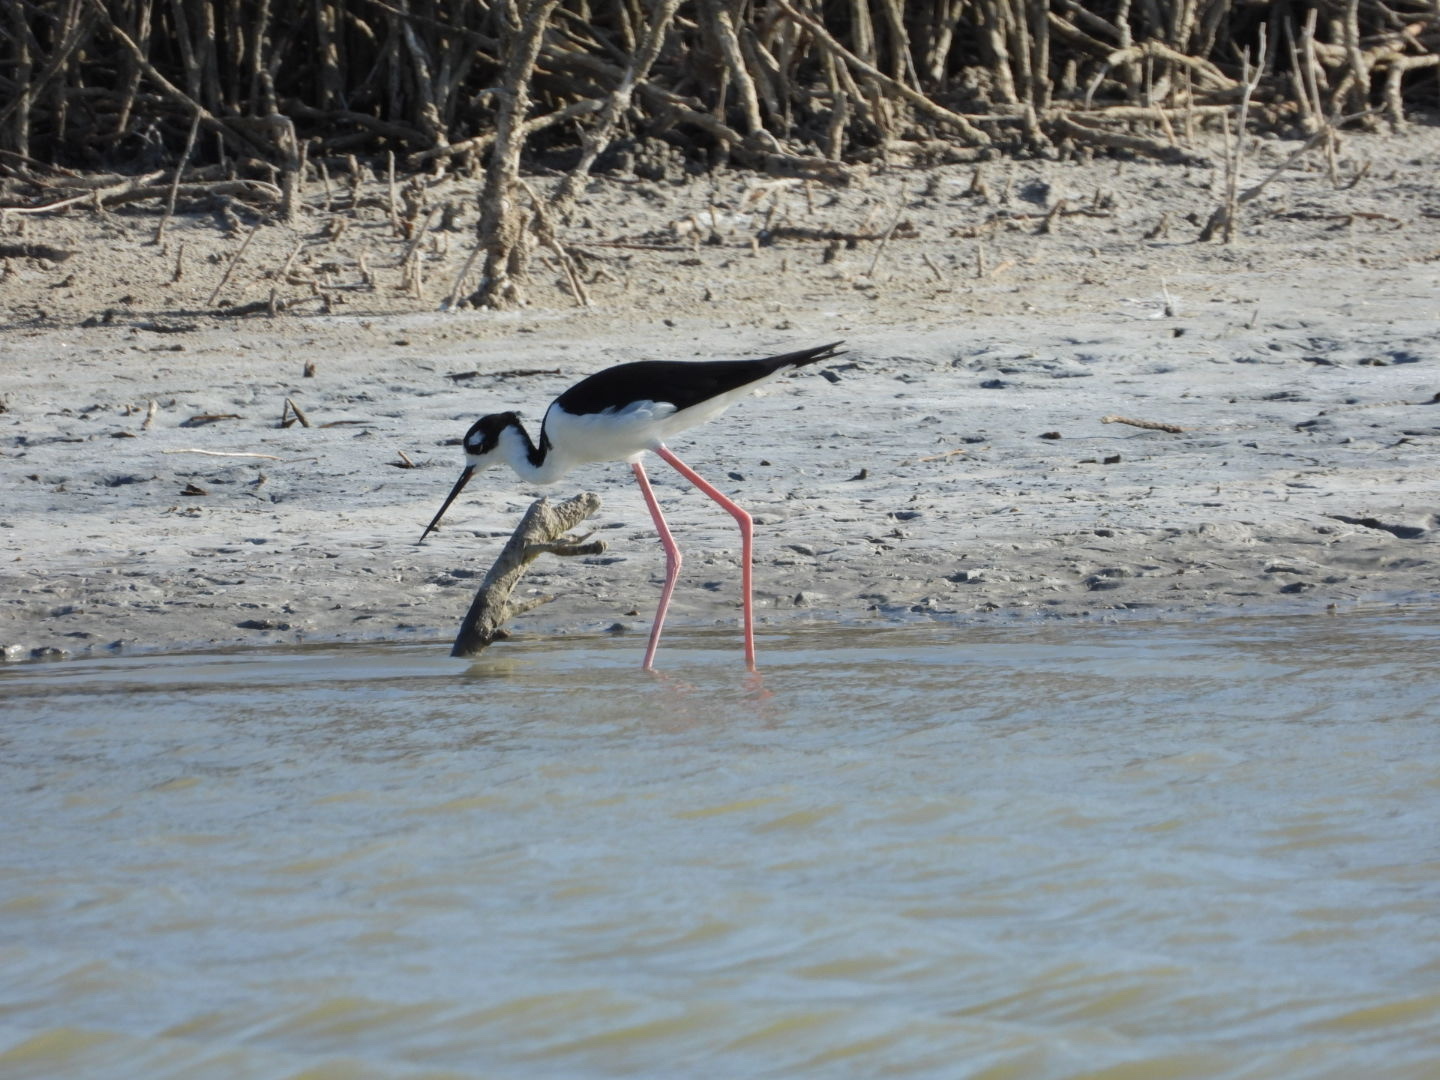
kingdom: Animalia
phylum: Chordata
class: Aves
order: Charadriiformes
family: Recurvirostridae
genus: Himantopus
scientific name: Himantopus mexicanus
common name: Black-necked stilt
